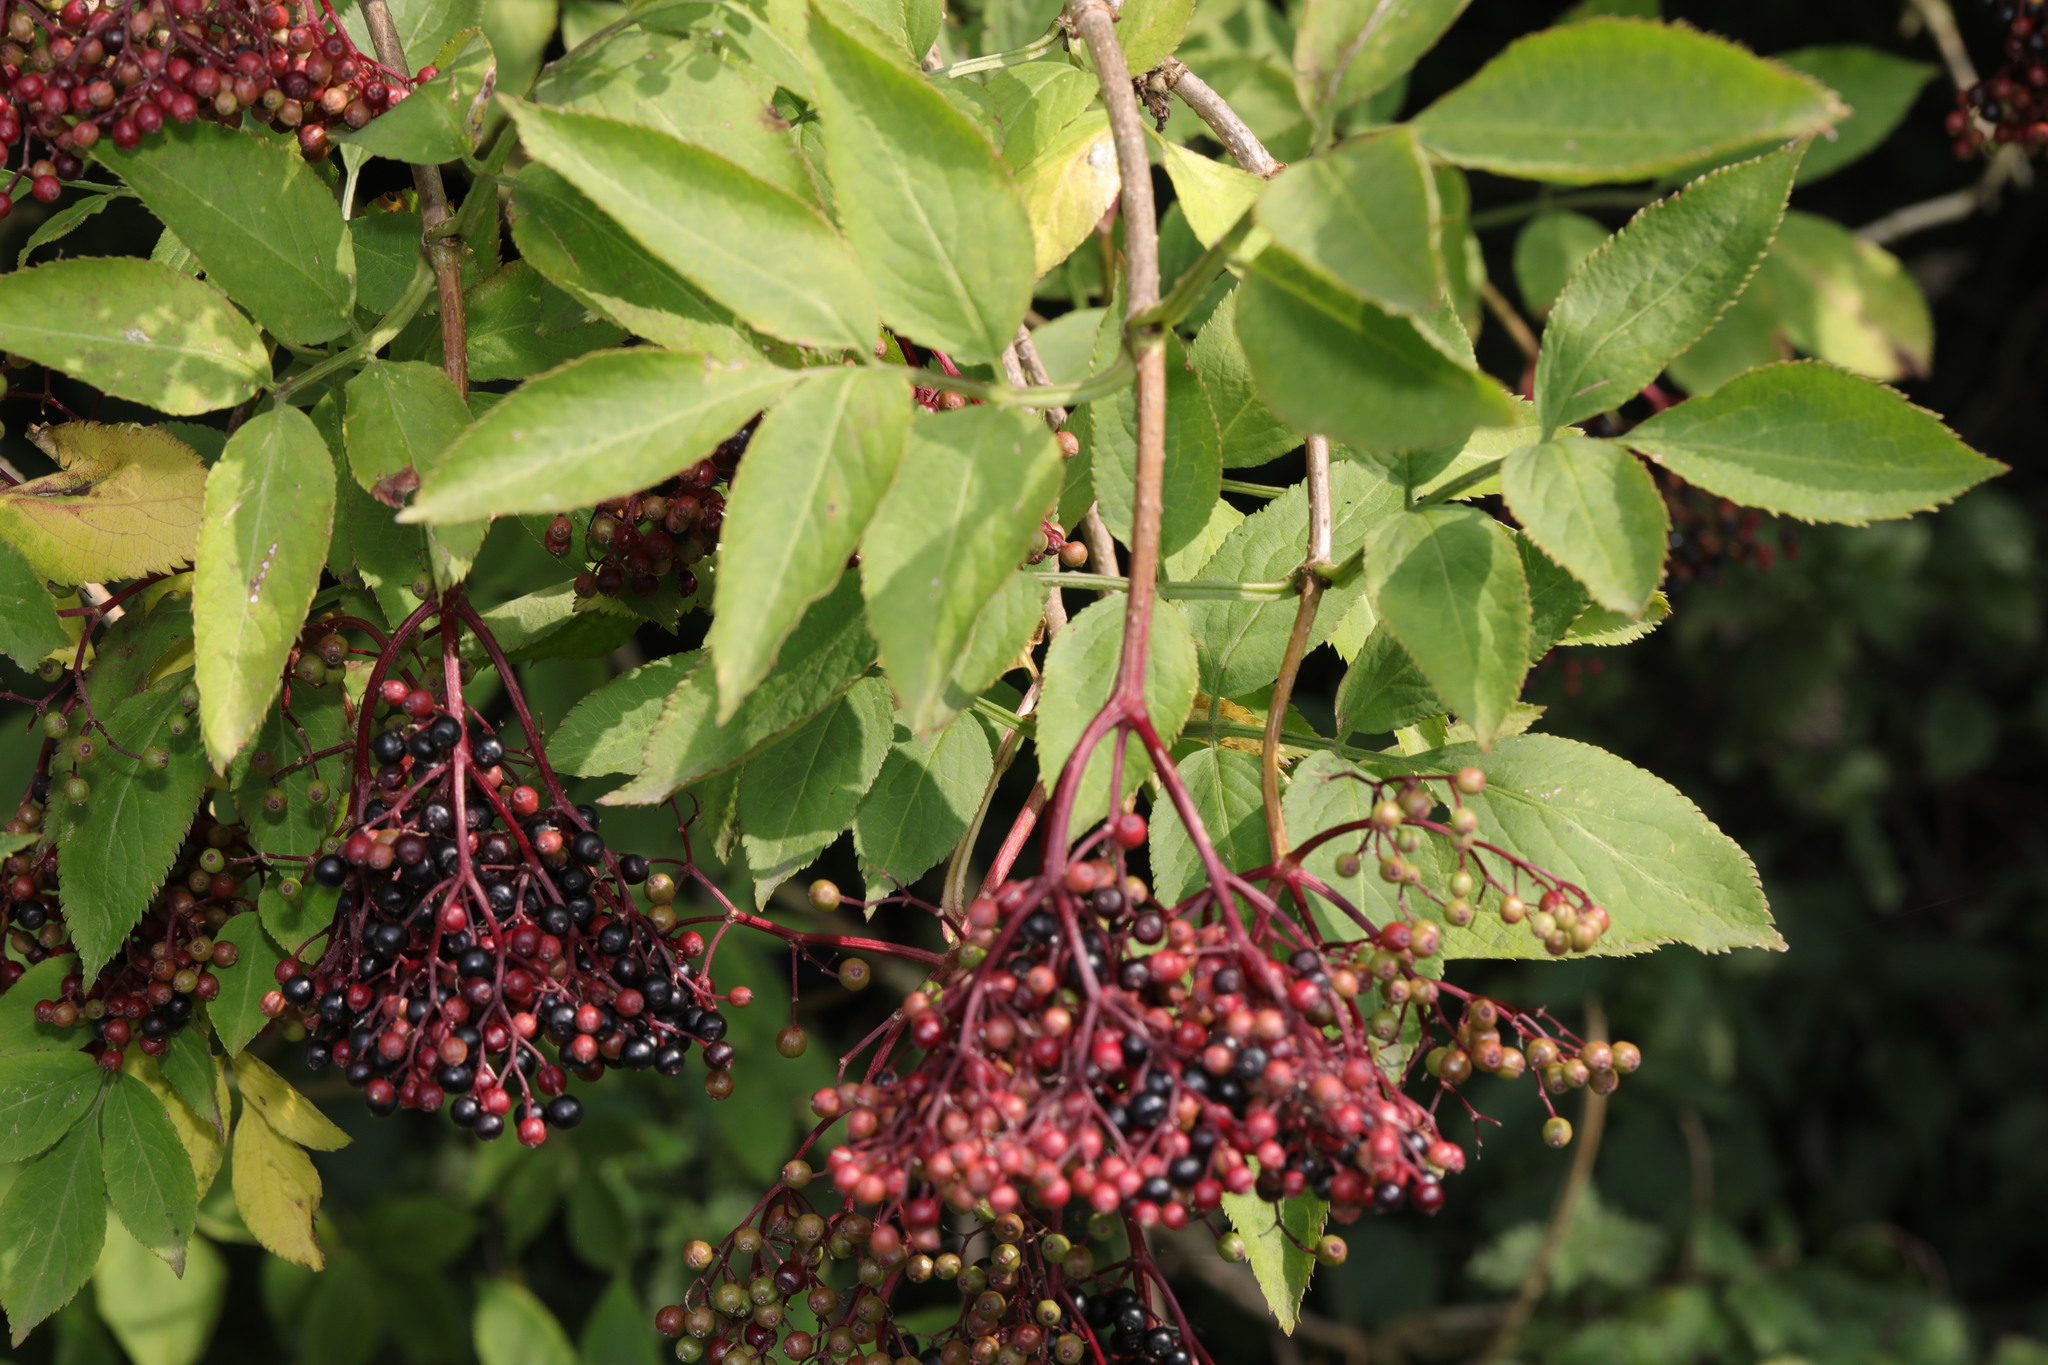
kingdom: Plantae
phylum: Tracheophyta
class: Magnoliopsida
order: Dipsacales
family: Viburnaceae
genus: Sambucus
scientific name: Sambucus nigra
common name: Elder
